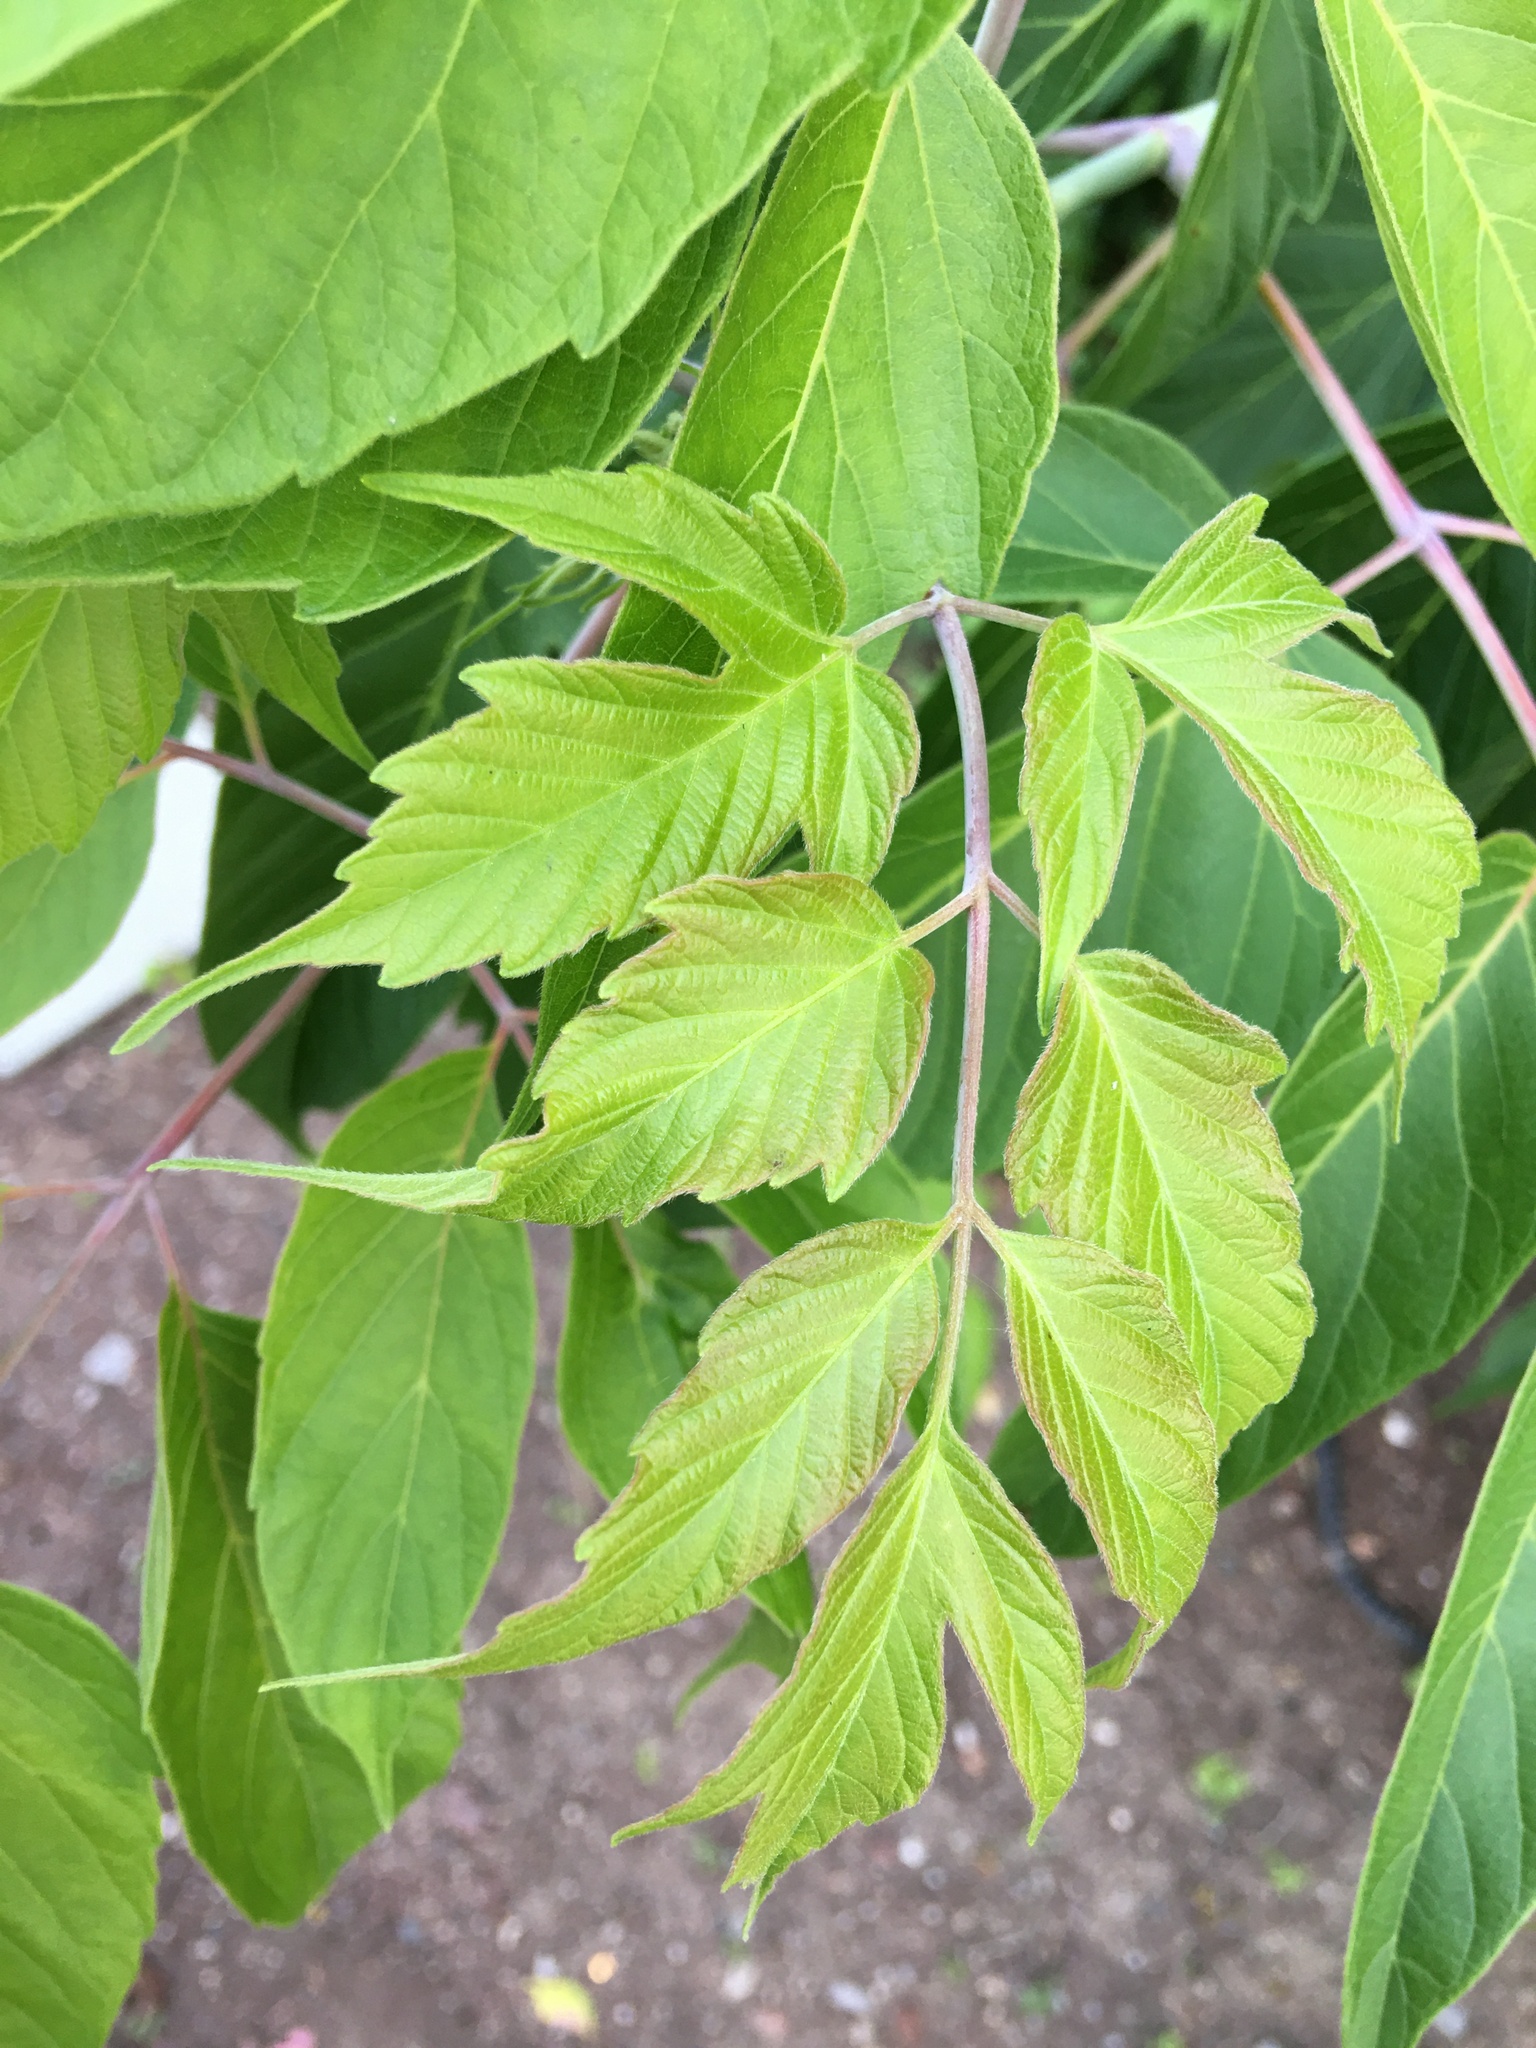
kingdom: Plantae
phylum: Tracheophyta
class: Magnoliopsida
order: Sapindales
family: Sapindaceae
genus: Acer
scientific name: Acer negundo
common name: Ashleaf maple
